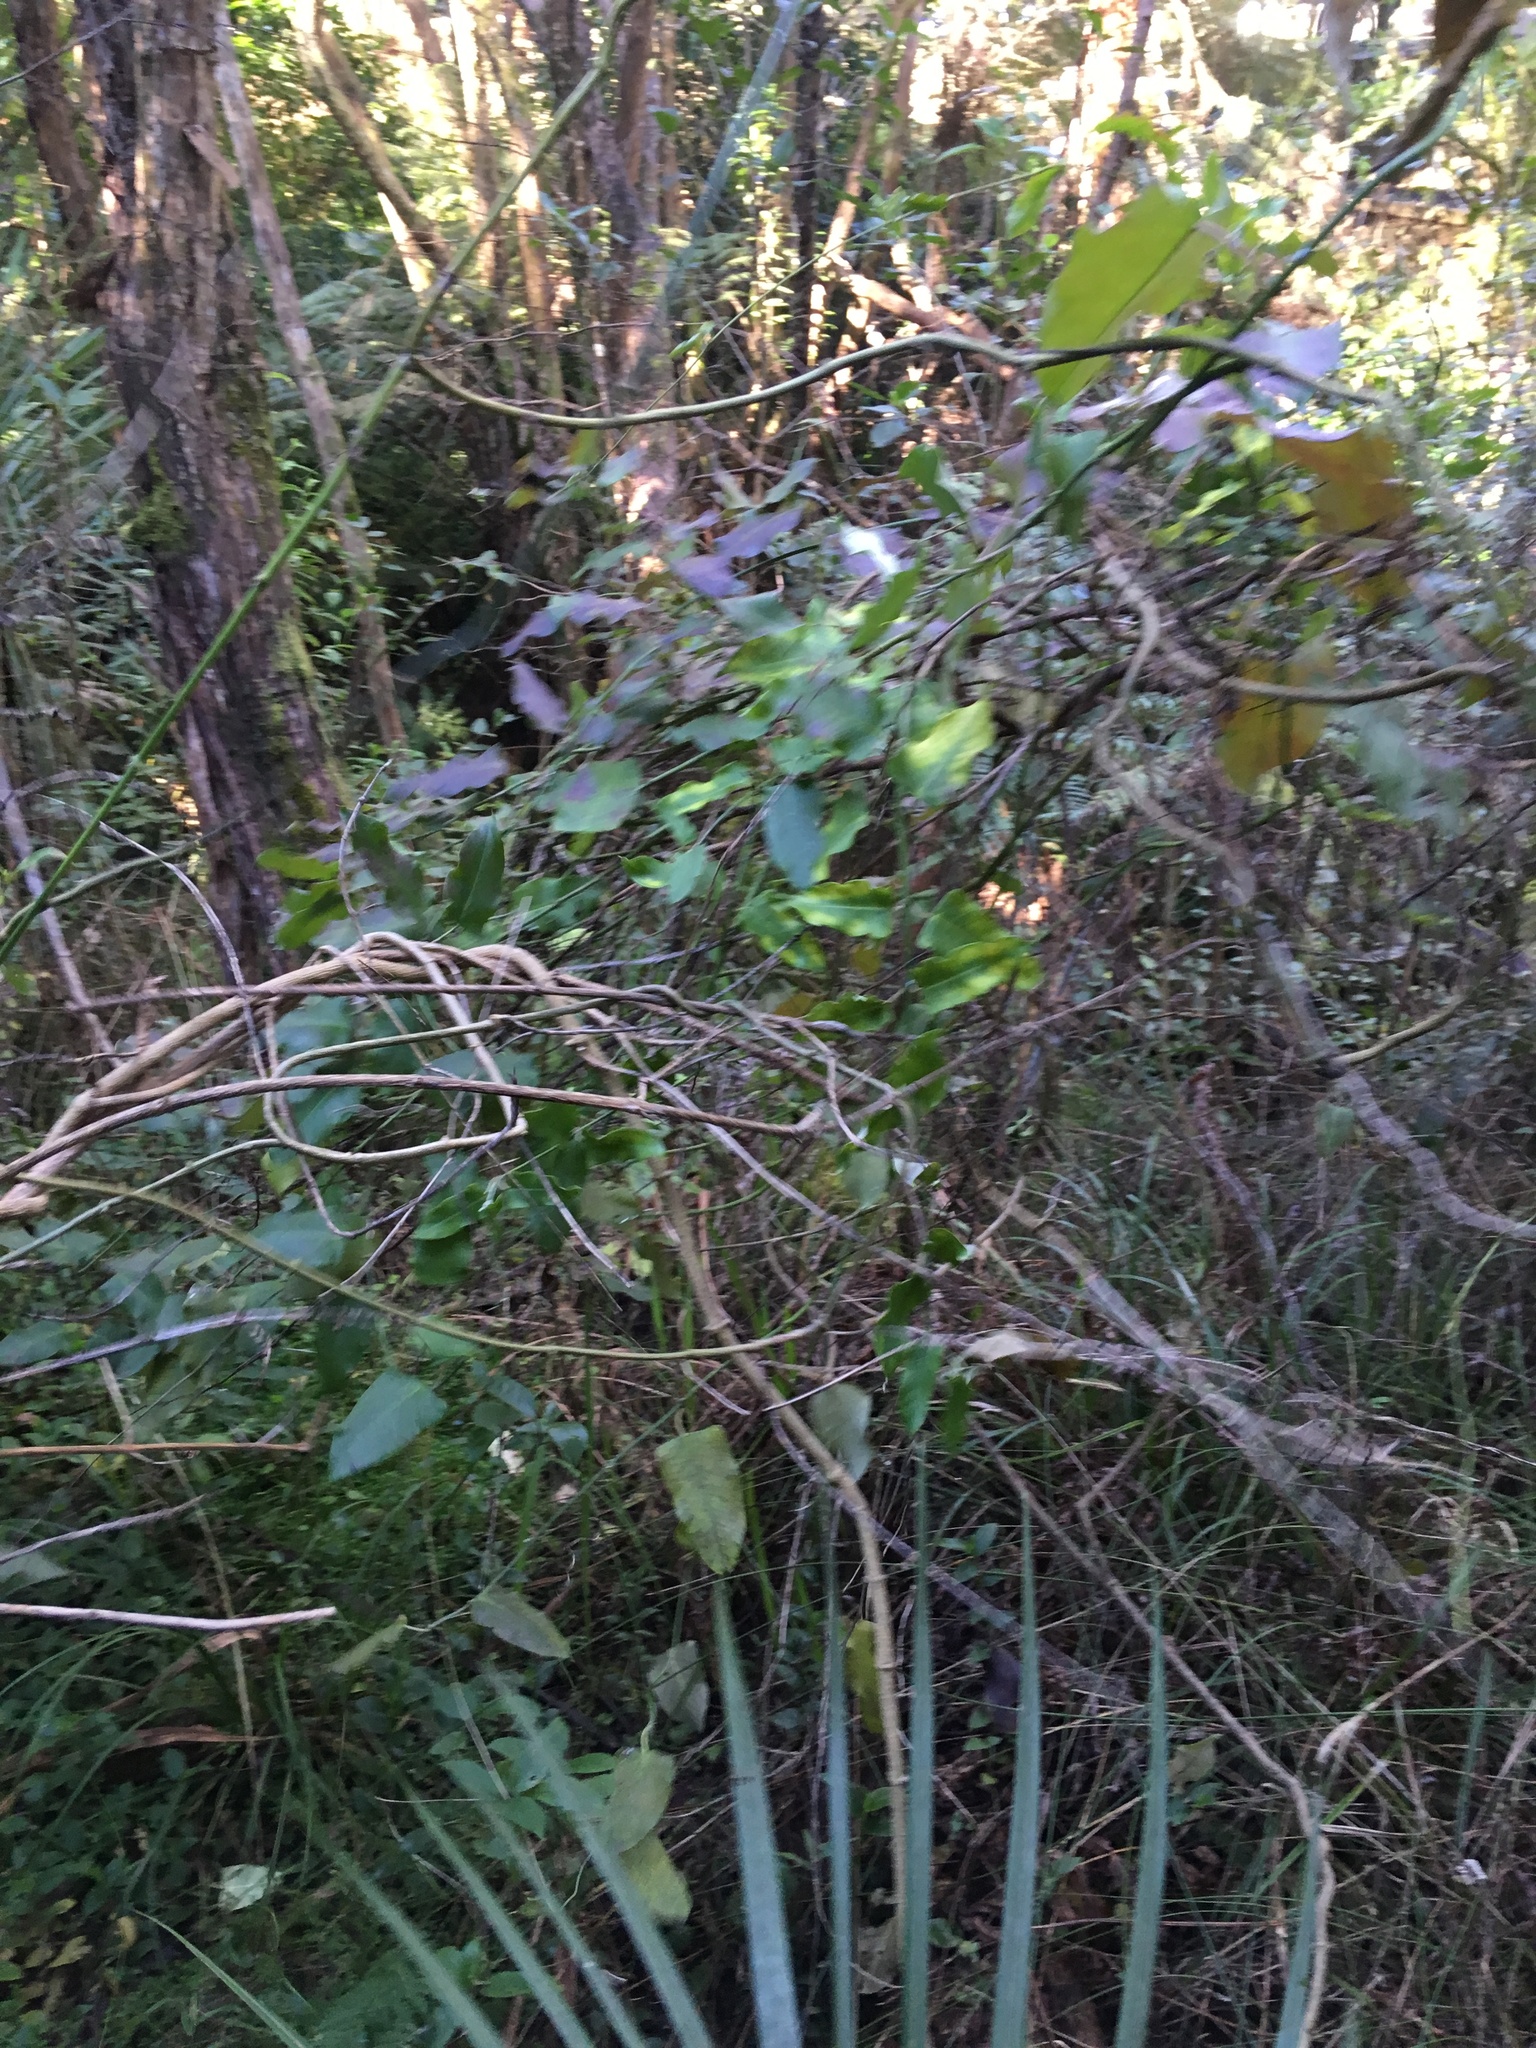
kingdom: Plantae
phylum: Tracheophyta
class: Magnoliopsida
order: Gentianales
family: Apocynaceae
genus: Araujia
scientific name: Araujia sericifera
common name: White bladderflower
